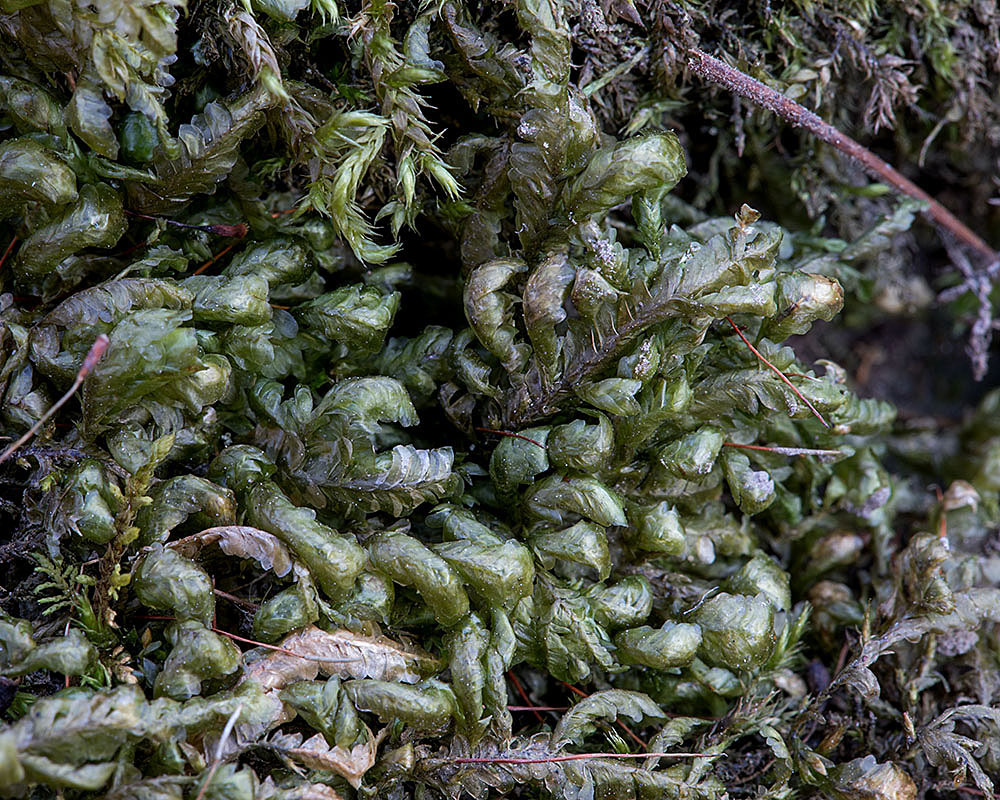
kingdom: Plantae
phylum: Bryophyta
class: Bryopsida
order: Hypnales
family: Neckeraceae
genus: Homalia
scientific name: Homalia trichomanoides
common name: Lime homalia moss
